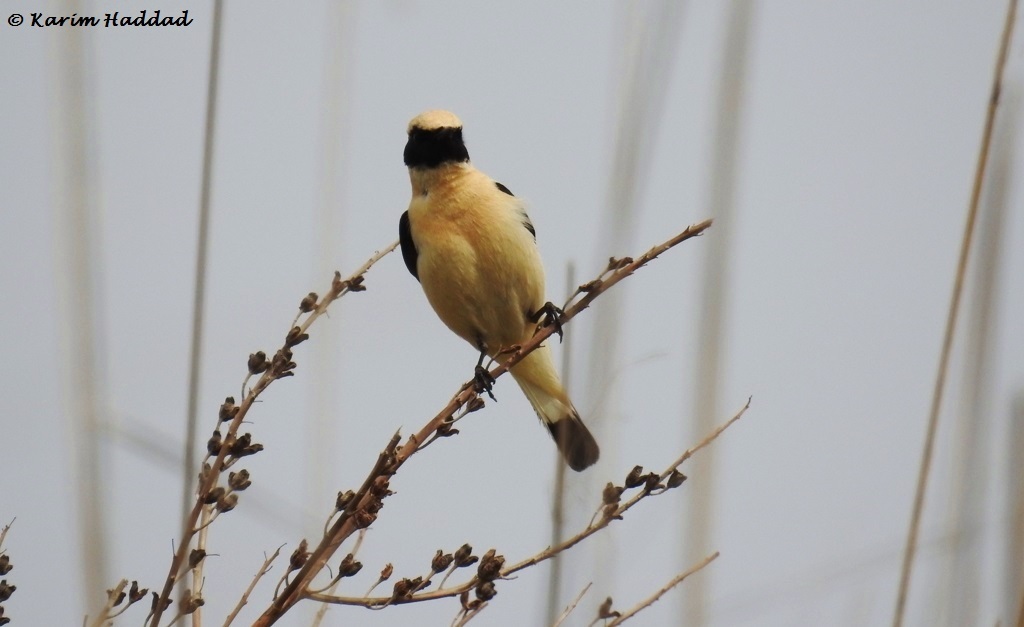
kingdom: Animalia
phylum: Chordata
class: Aves
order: Passeriformes
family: Muscicapidae
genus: Oenanthe
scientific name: Oenanthe hispanica
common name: Black-eared wheatear
